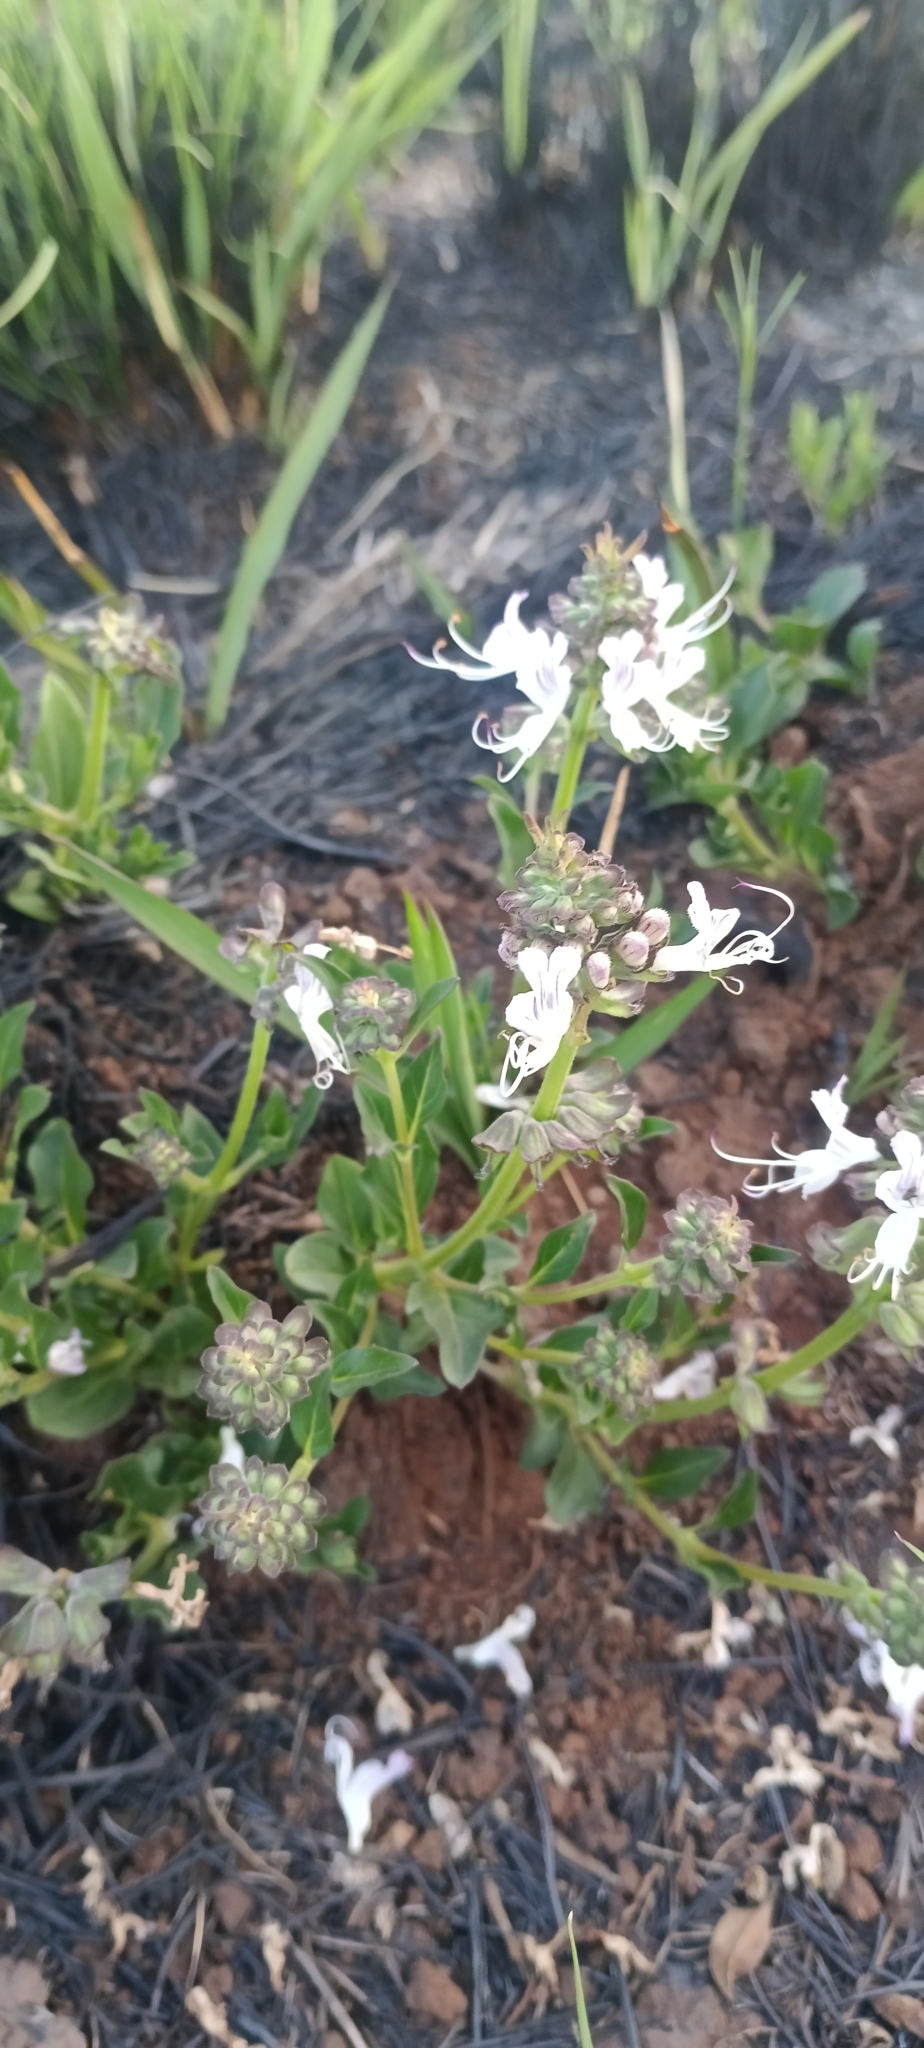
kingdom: Plantae
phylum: Tracheophyta
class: Magnoliopsida
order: Lamiales
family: Lamiaceae
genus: Ocimum
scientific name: Ocimum obovatum
